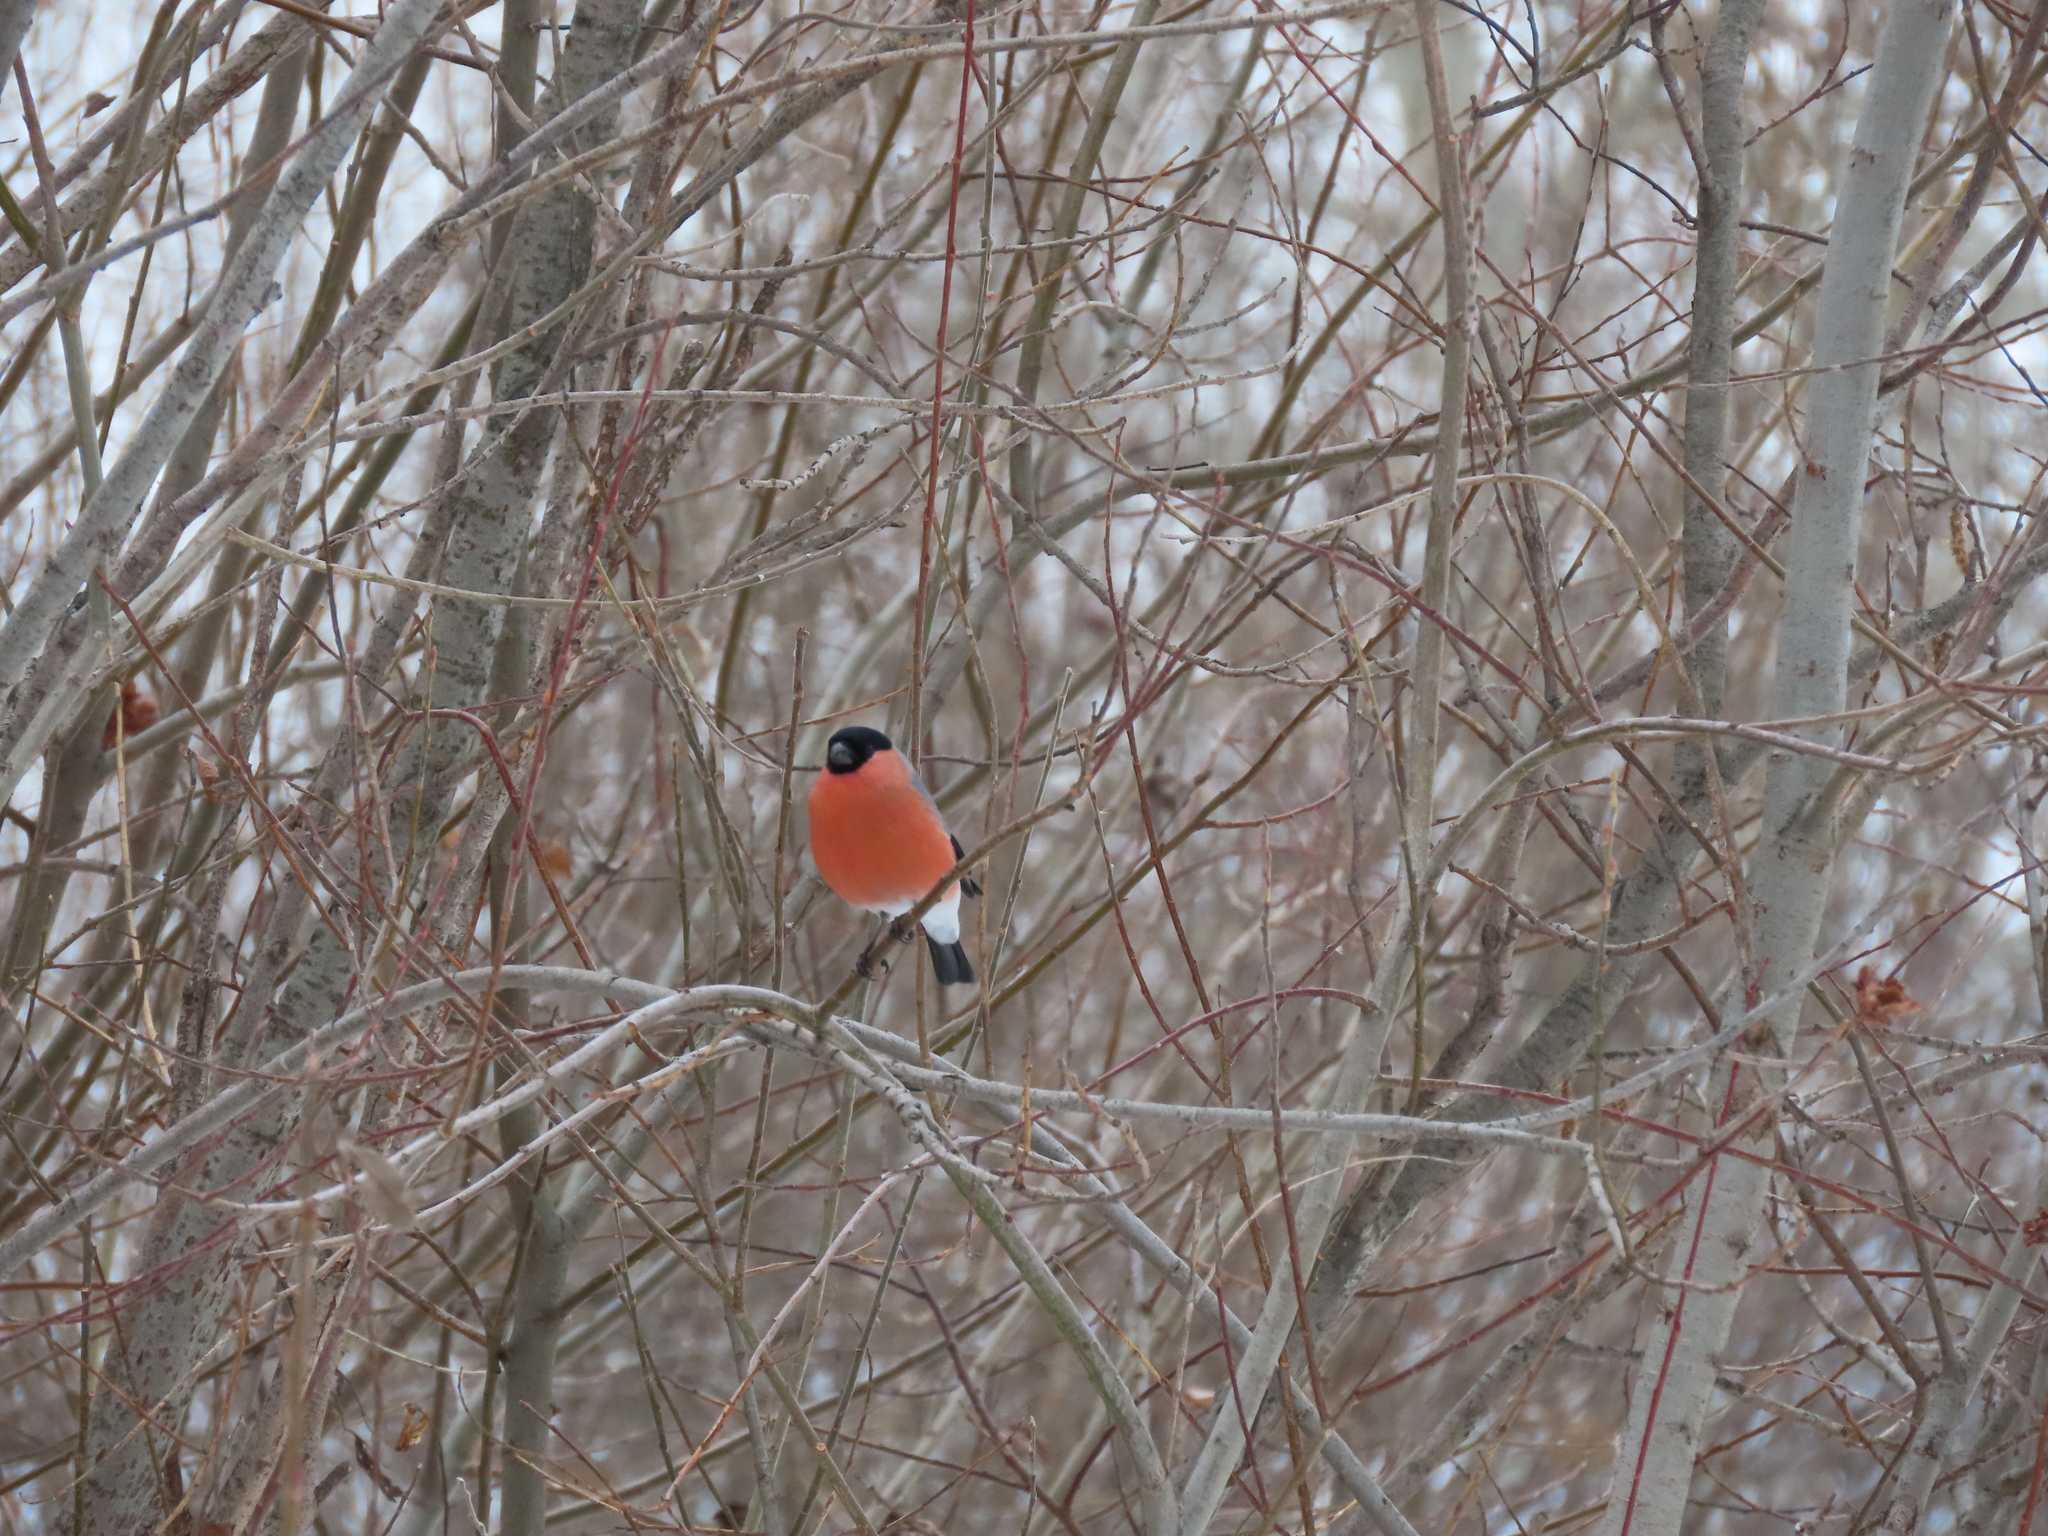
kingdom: Animalia
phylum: Chordata
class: Aves
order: Passeriformes
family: Fringillidae
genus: Pyrrhula
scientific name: Pyrrhula pyrrhula
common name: Eurasian bullfinch
